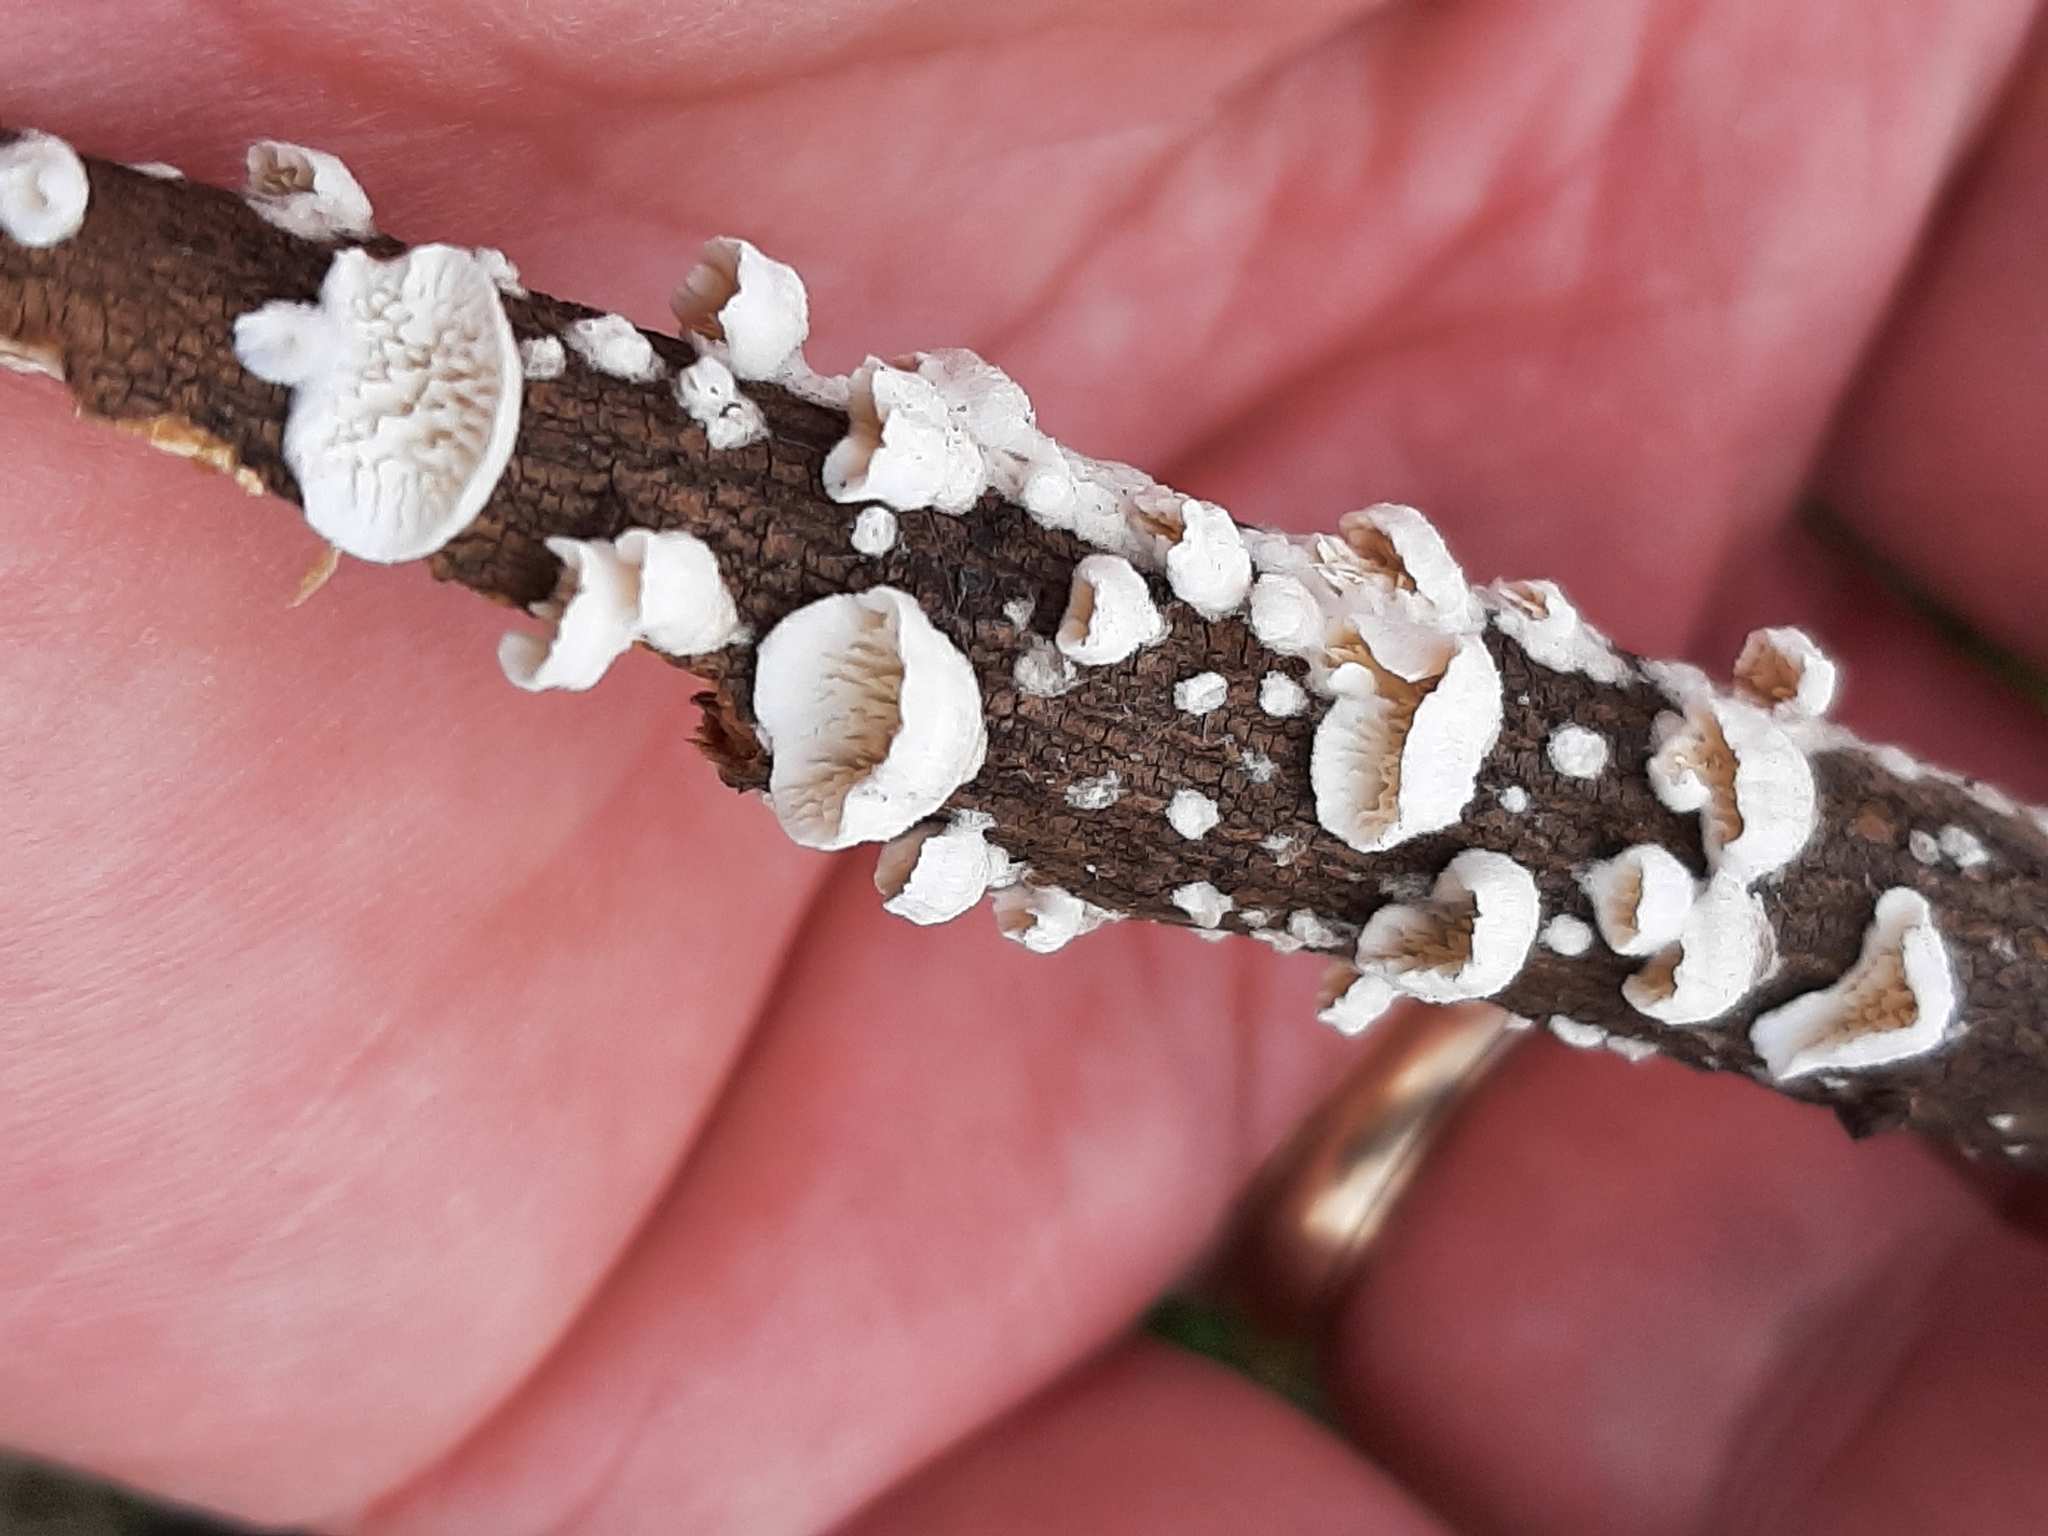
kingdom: Fungi
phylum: Basidiomycota
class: Agaricomycetes
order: Polyporales
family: Irpicaceae
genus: Irpex
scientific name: Irpex lacteus
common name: Milk-white toothed polypore
